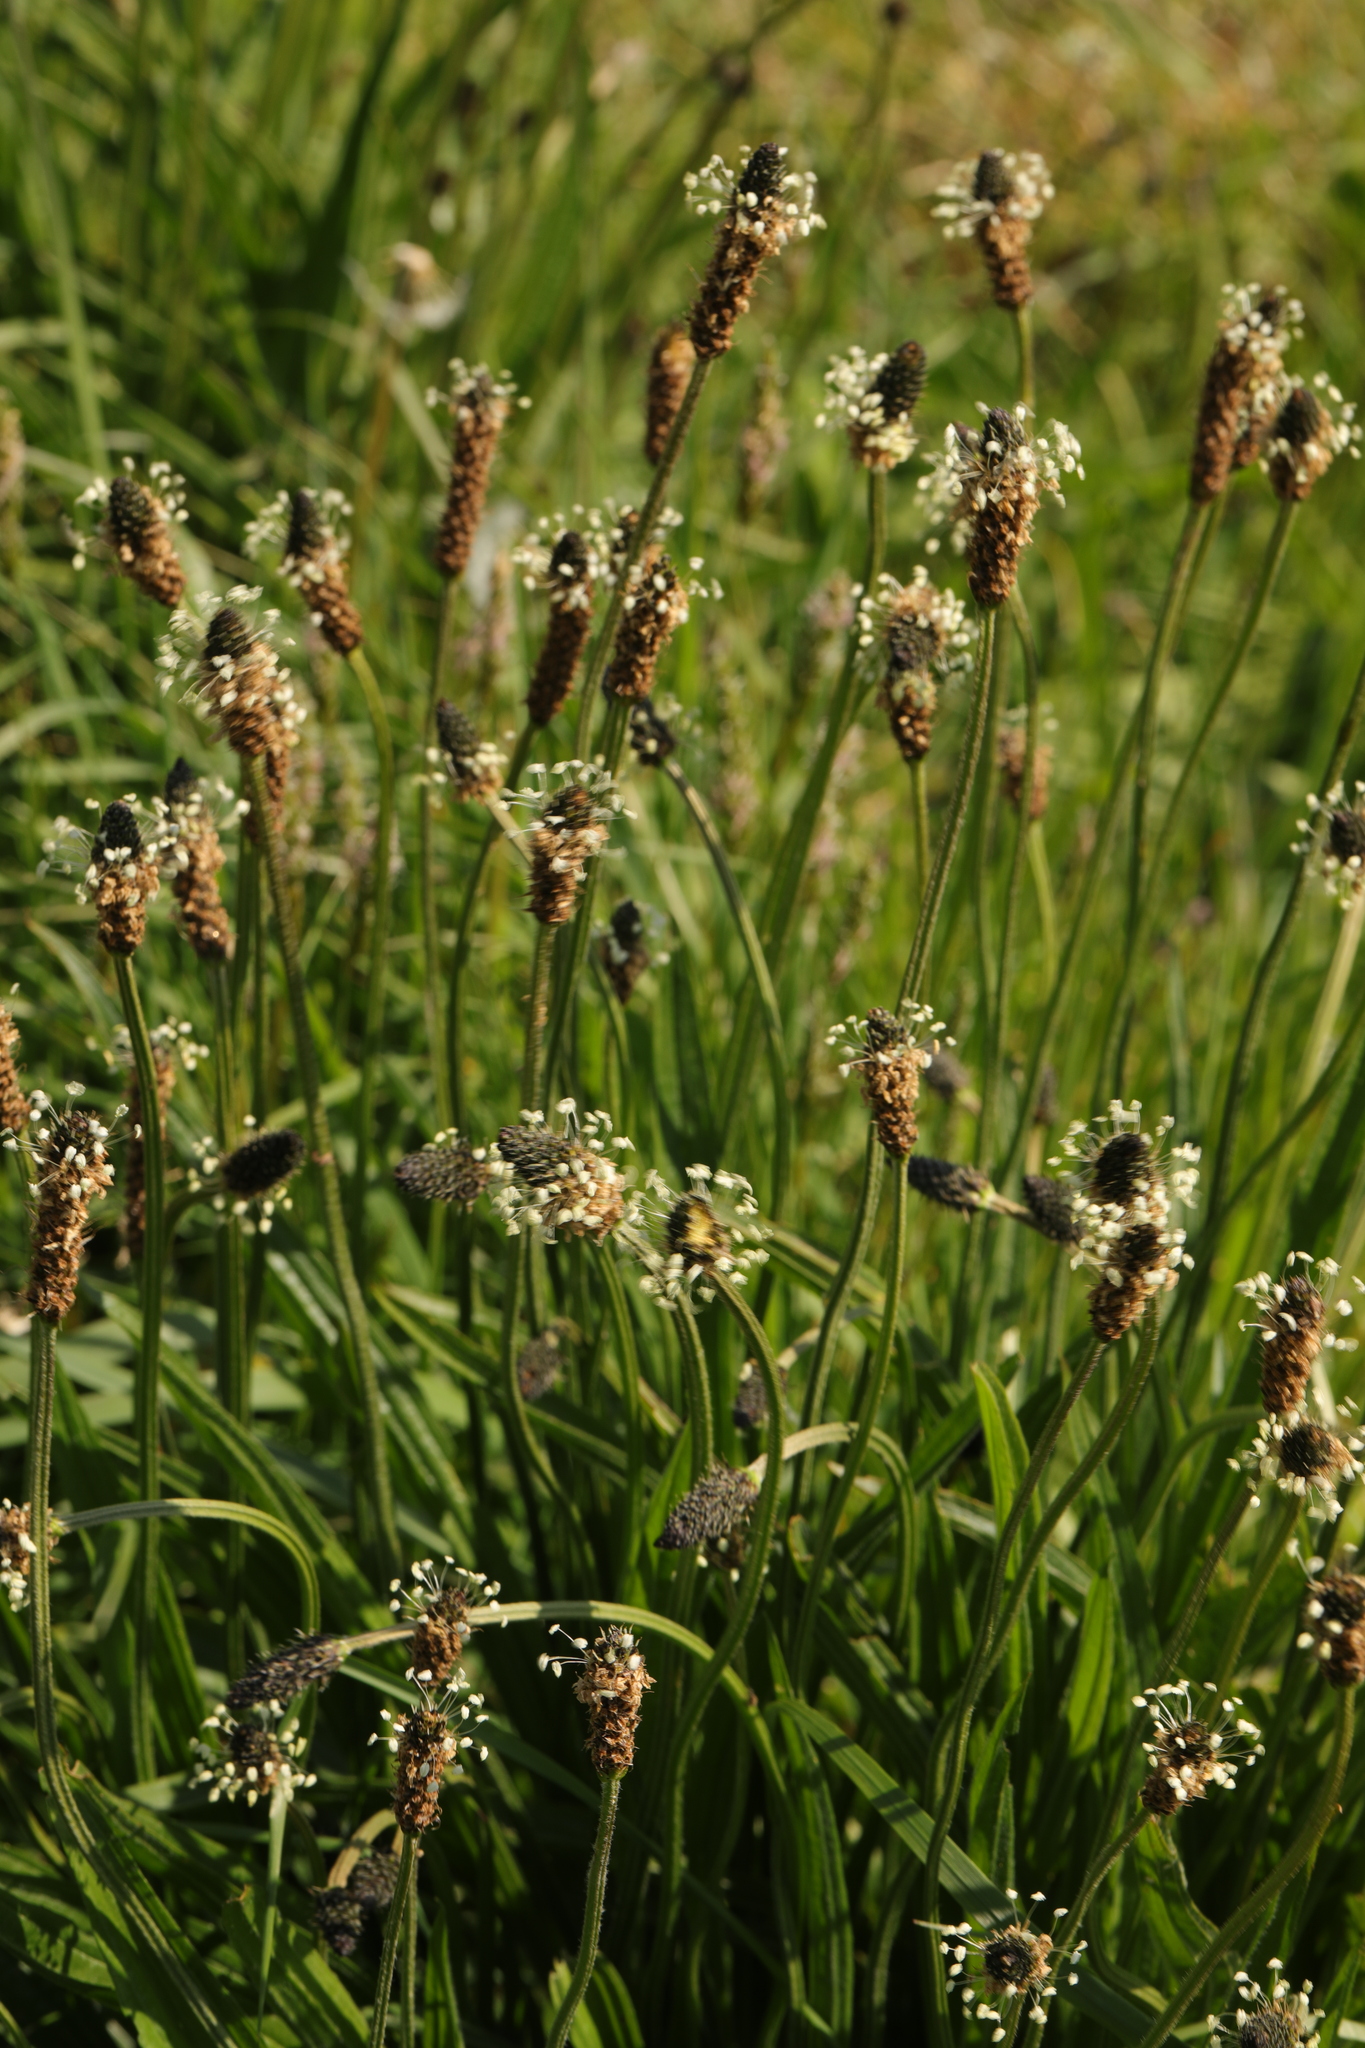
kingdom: Plantae
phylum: Tracheophyta
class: Magnoliopsida
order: Lamiales
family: Plantaginaceae
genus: Plantago
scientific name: Plantago lanceolata
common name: Ribwort plantain
